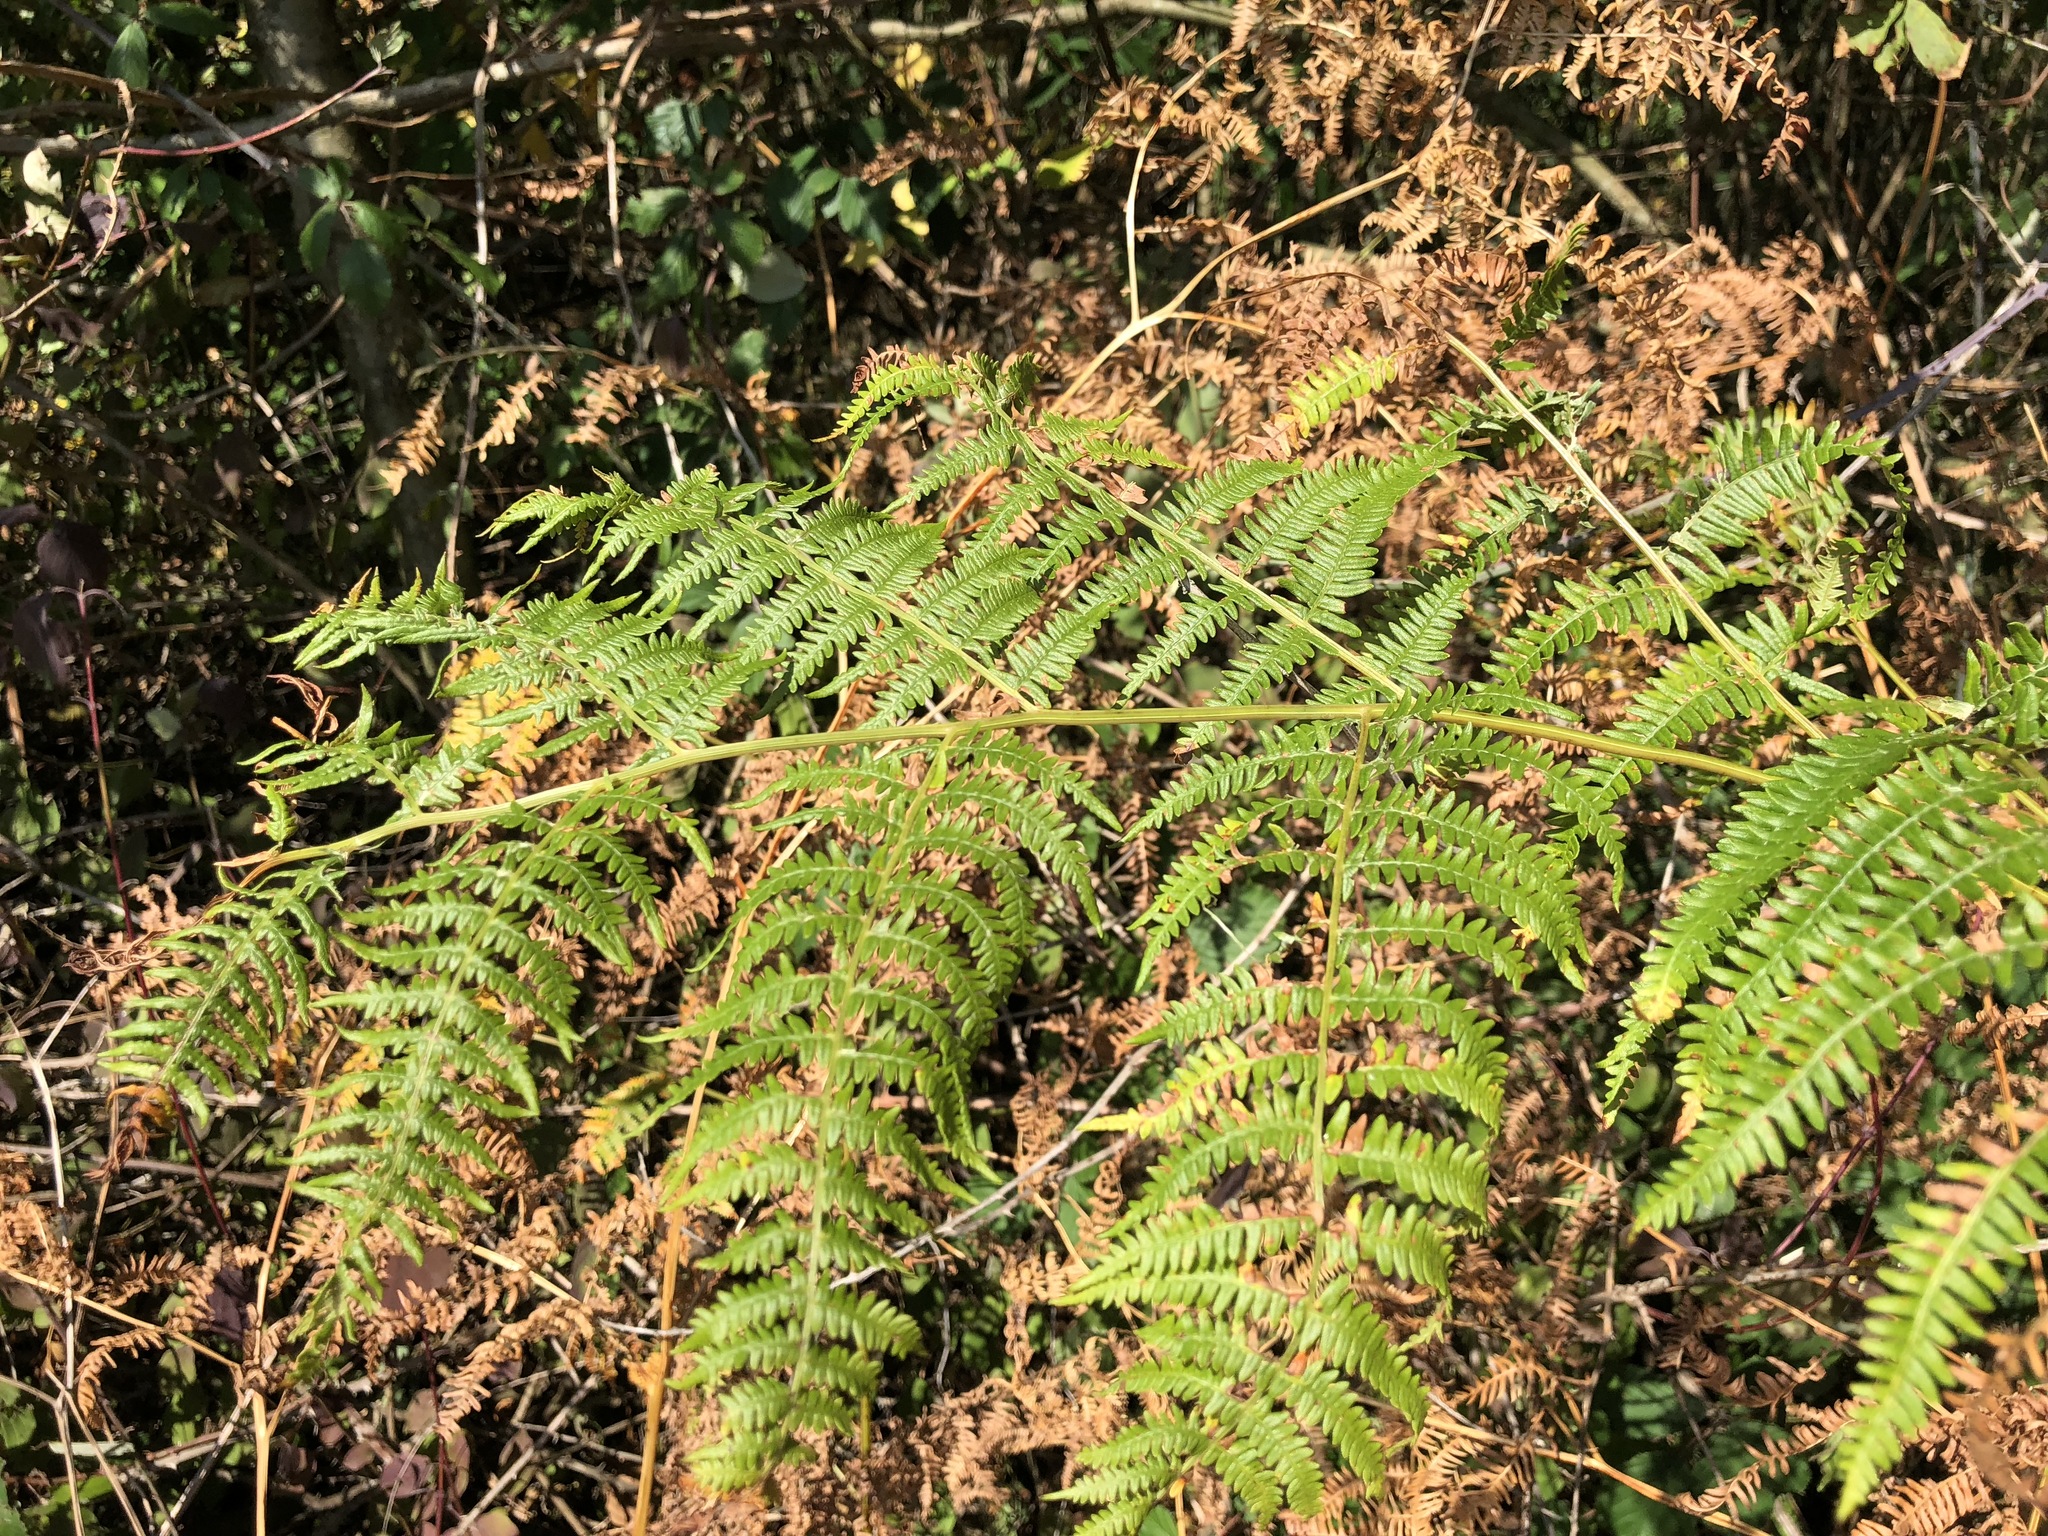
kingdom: Plantae
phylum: Tracheophyta
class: Polypodiopsida
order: Polypodiales
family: Dennstaedtiaceae
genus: Pteridium
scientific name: Pteridium aquilinum
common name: Bracken
